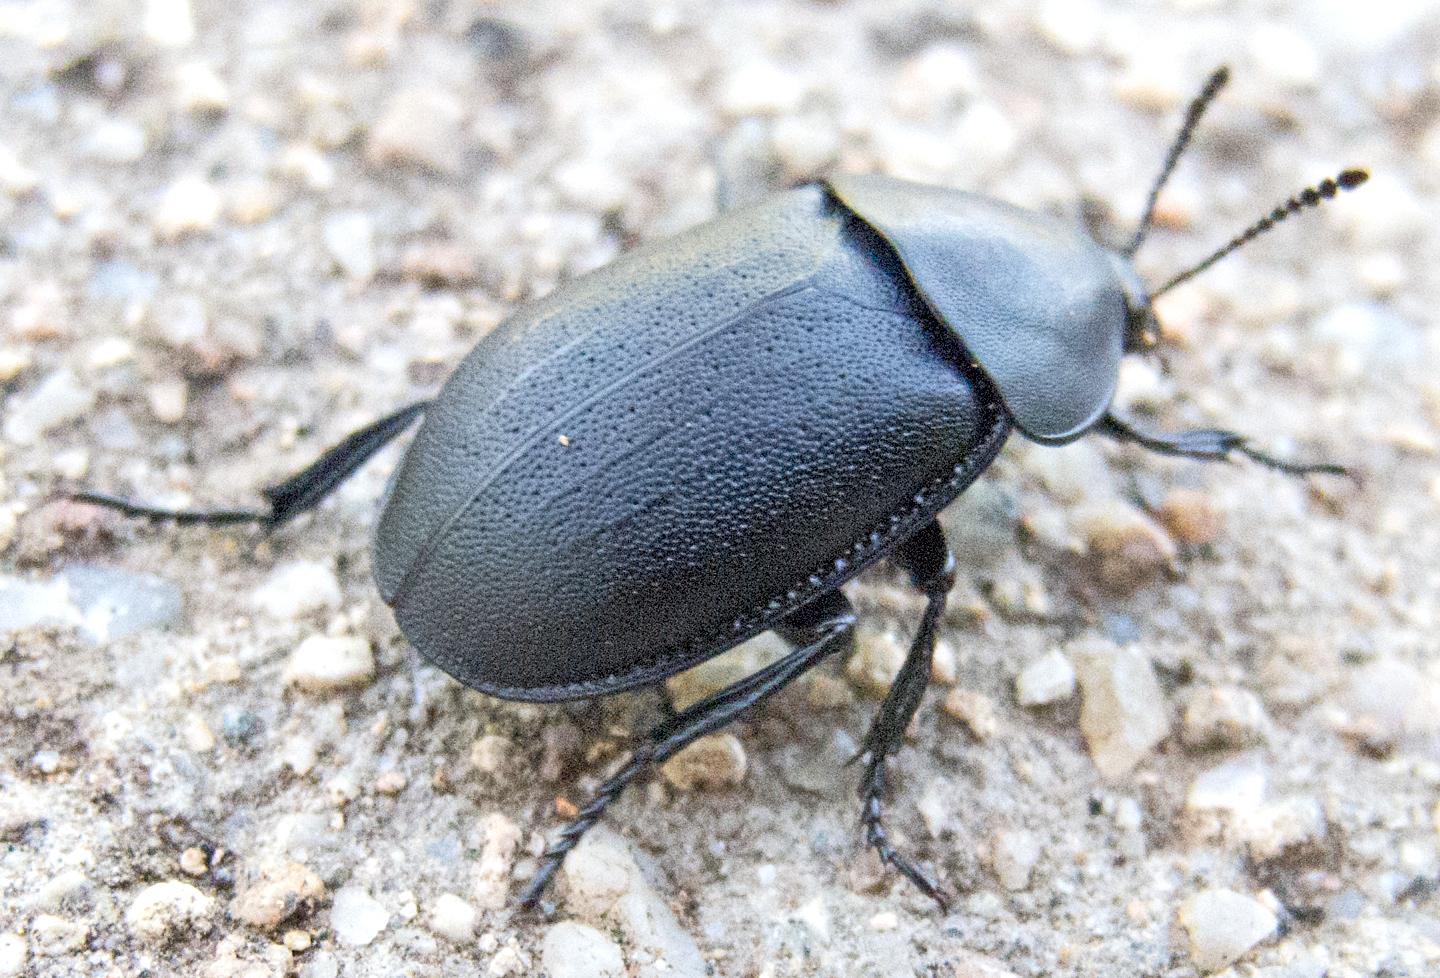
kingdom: Animalia
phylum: Arthropoda
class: Insecta
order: Coleoptera
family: Staphylinidae
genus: Silpha
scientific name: Silpha laevigata
